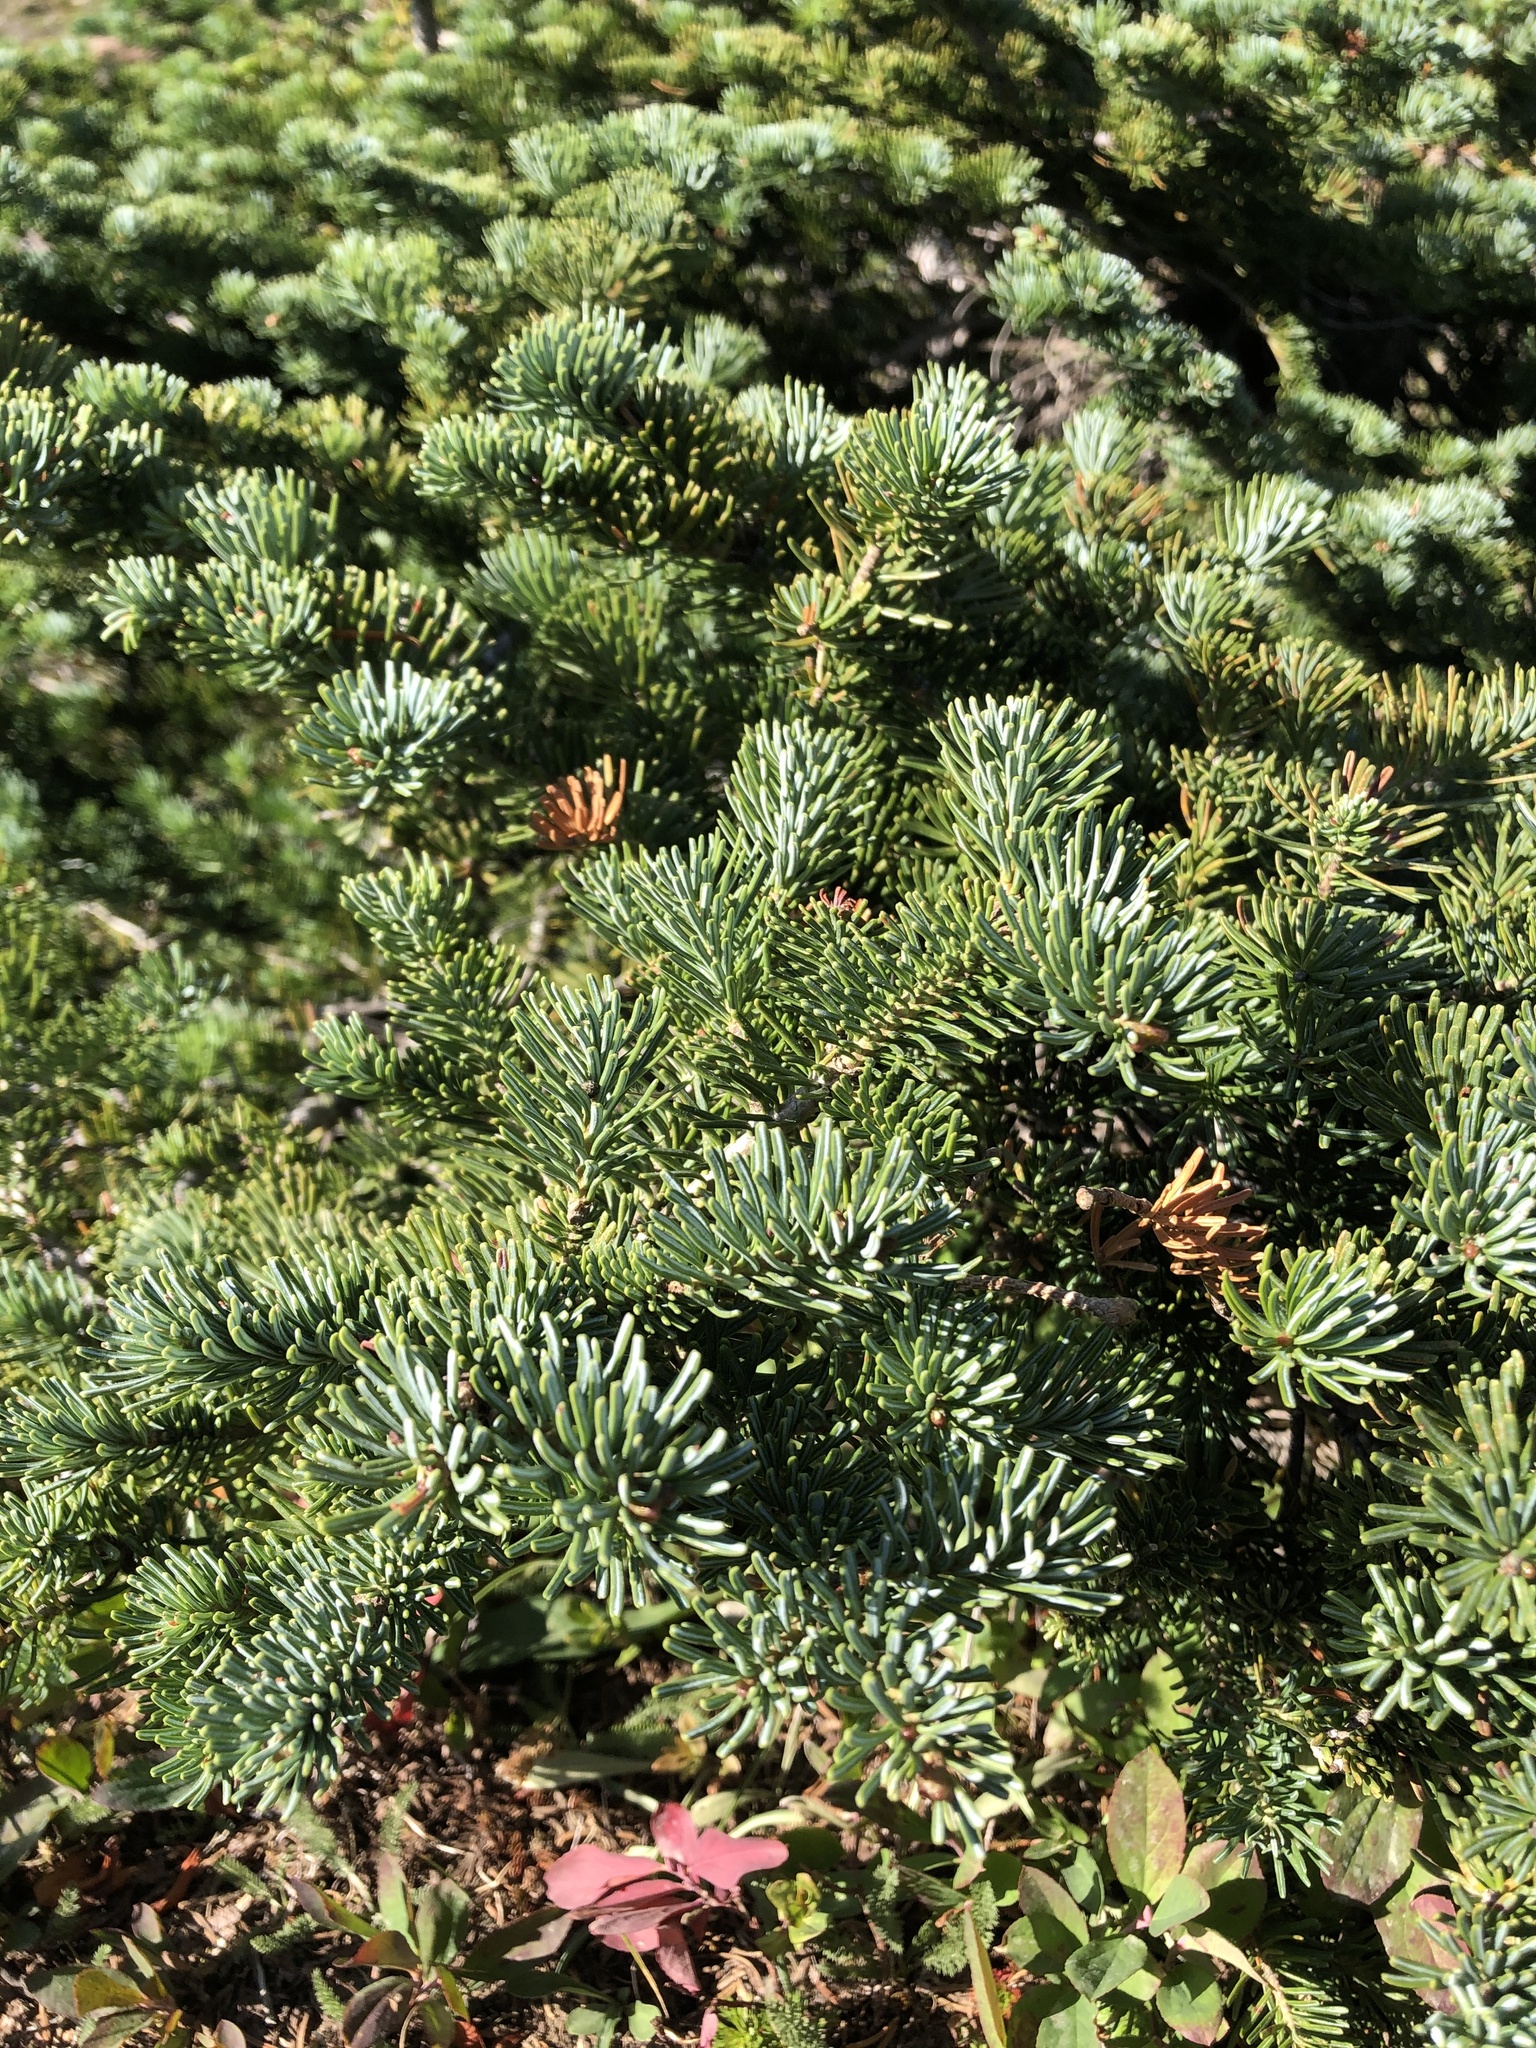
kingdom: Plantae
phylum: Tracheophyta
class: Pinopsida
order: Pinales
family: Pinaceae
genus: Abies
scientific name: Abies lasiocarpa
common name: Subalpine fir
